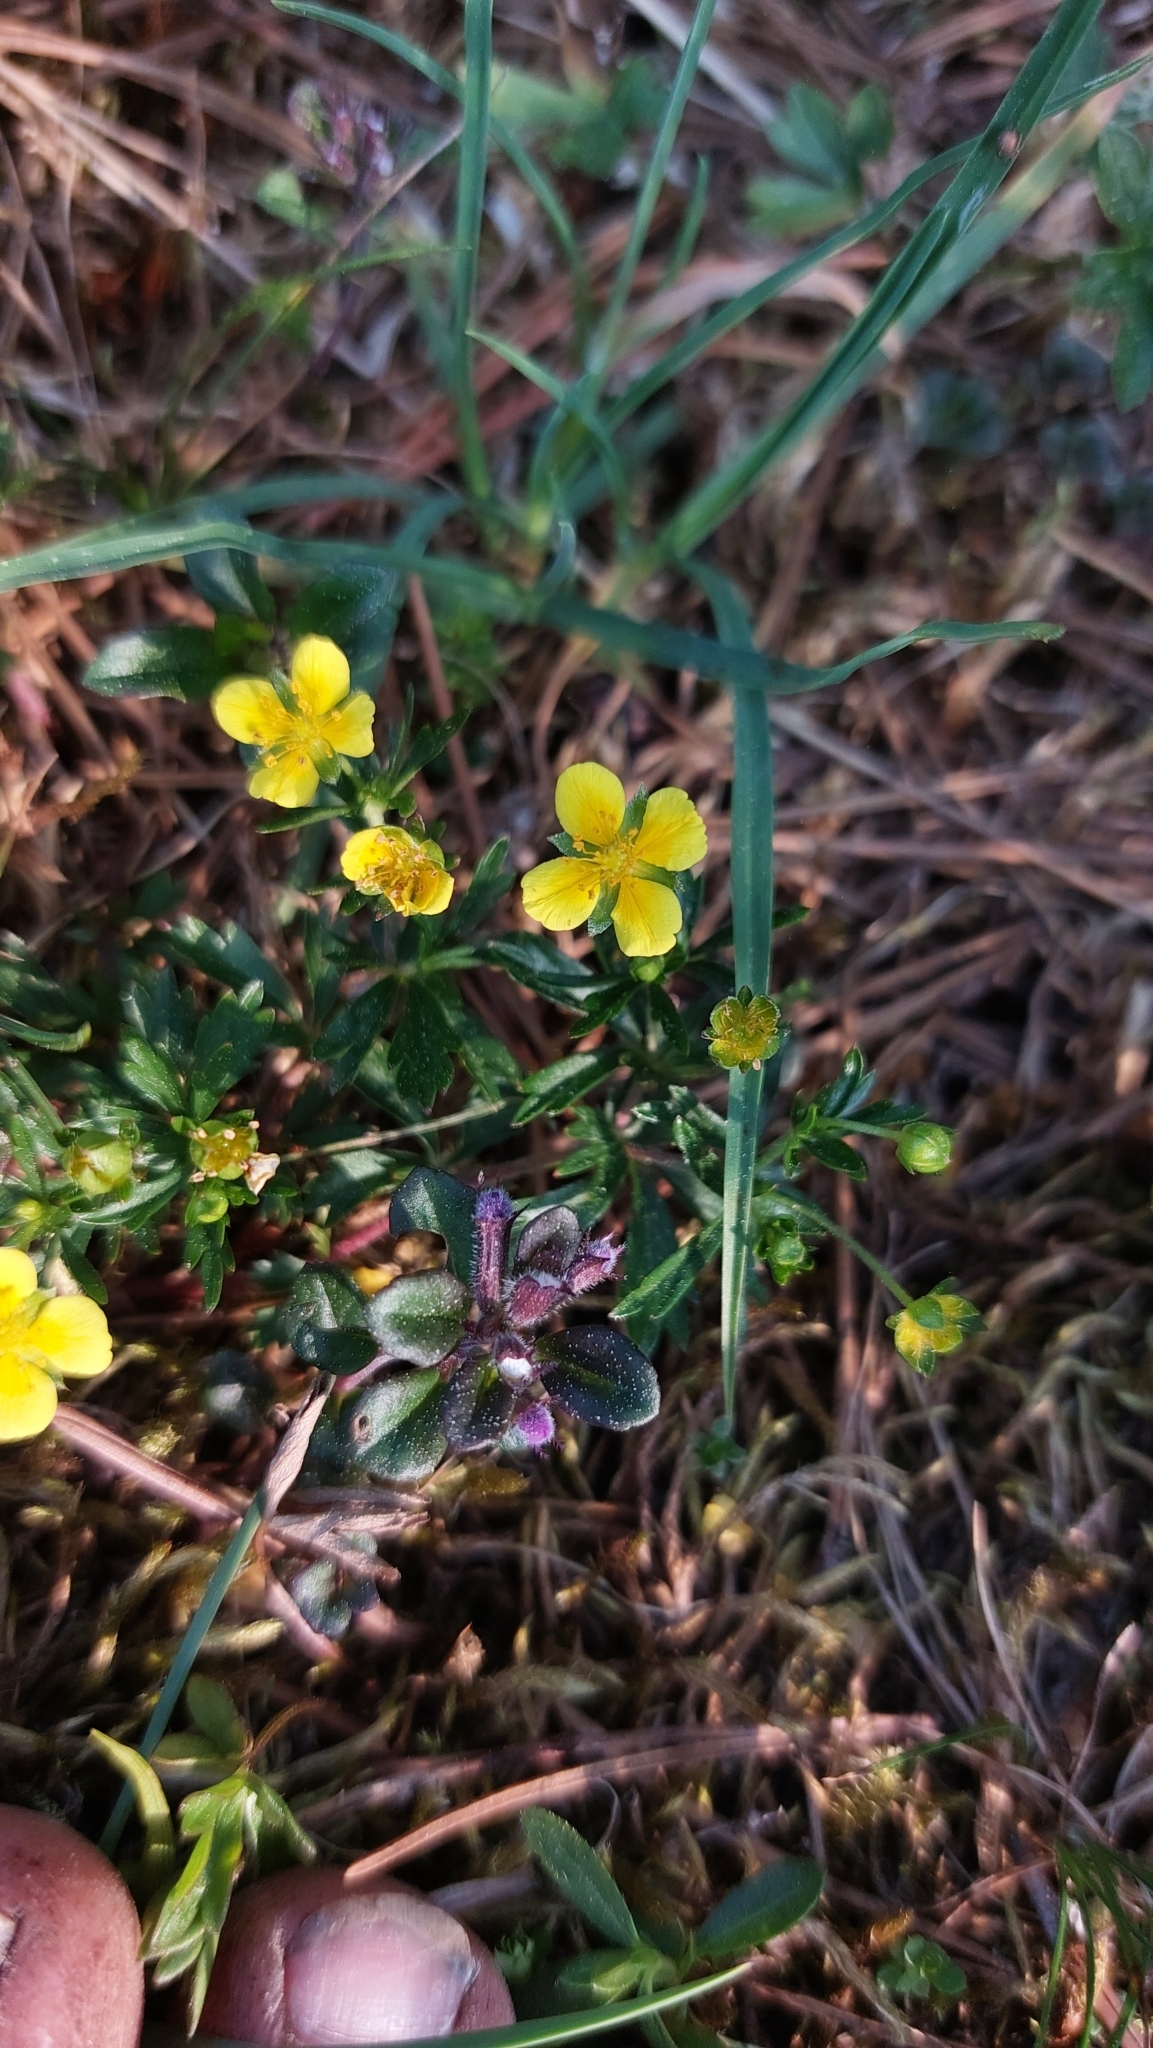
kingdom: Plantae
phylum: Tracheophyta
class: Magnoliopsida
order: Rosales
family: Rosaceae
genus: Potentilla
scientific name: Potentilla erecta
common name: Tormentil
